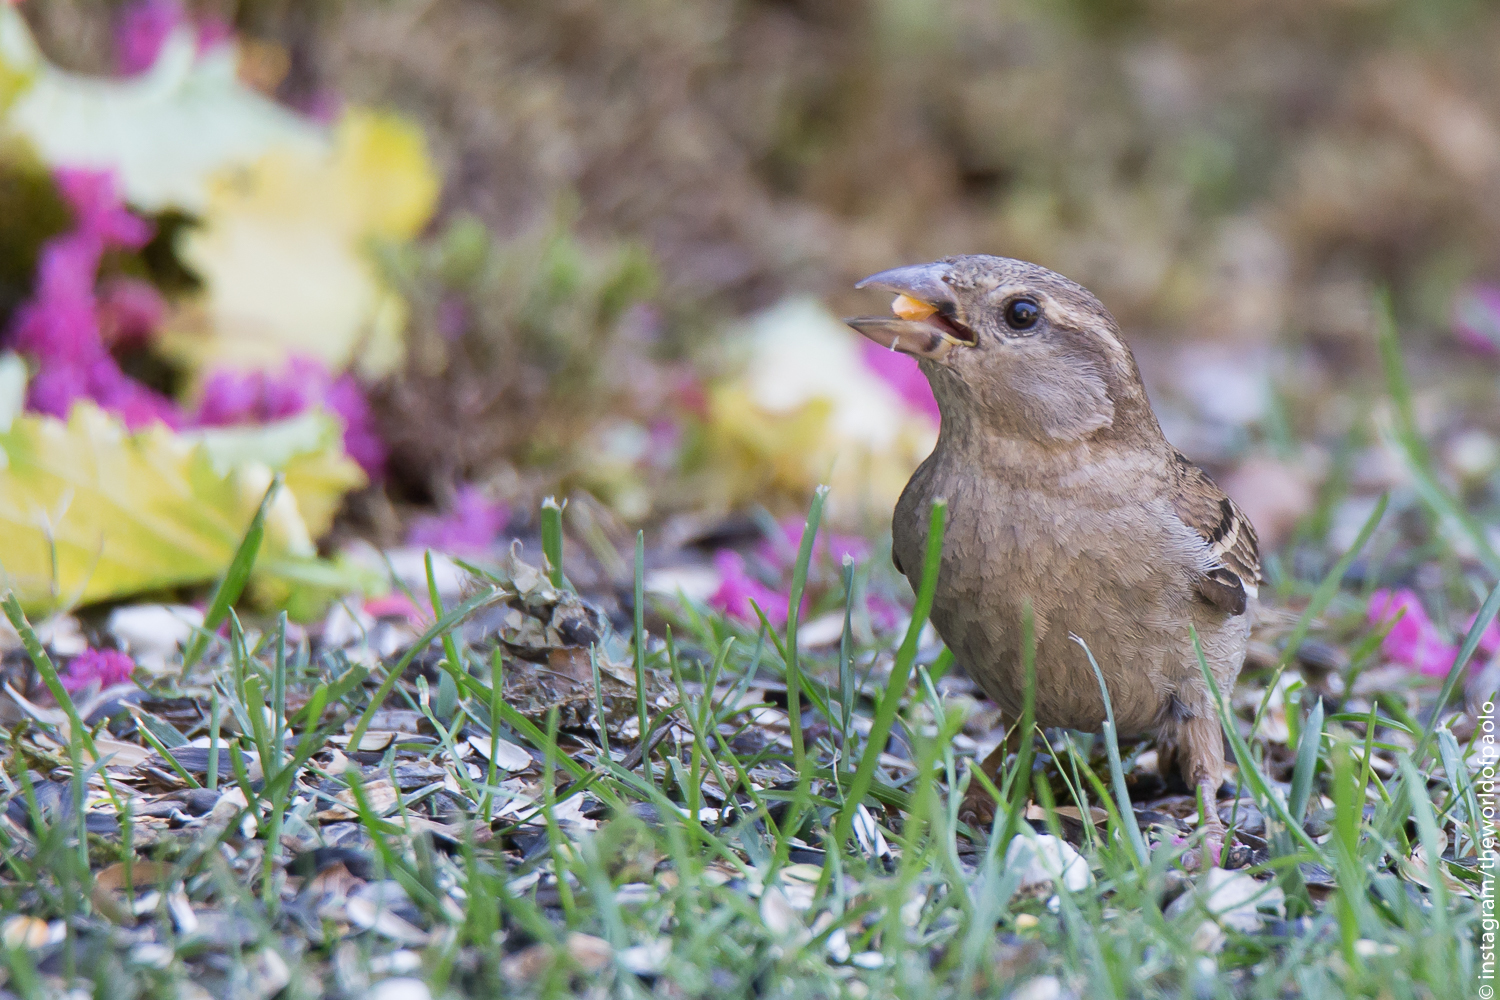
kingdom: Animalia
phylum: Chordata
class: Aves
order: Passeriformes
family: Passeridae
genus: Passer
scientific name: Passer italiae
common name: Italian sparrow
